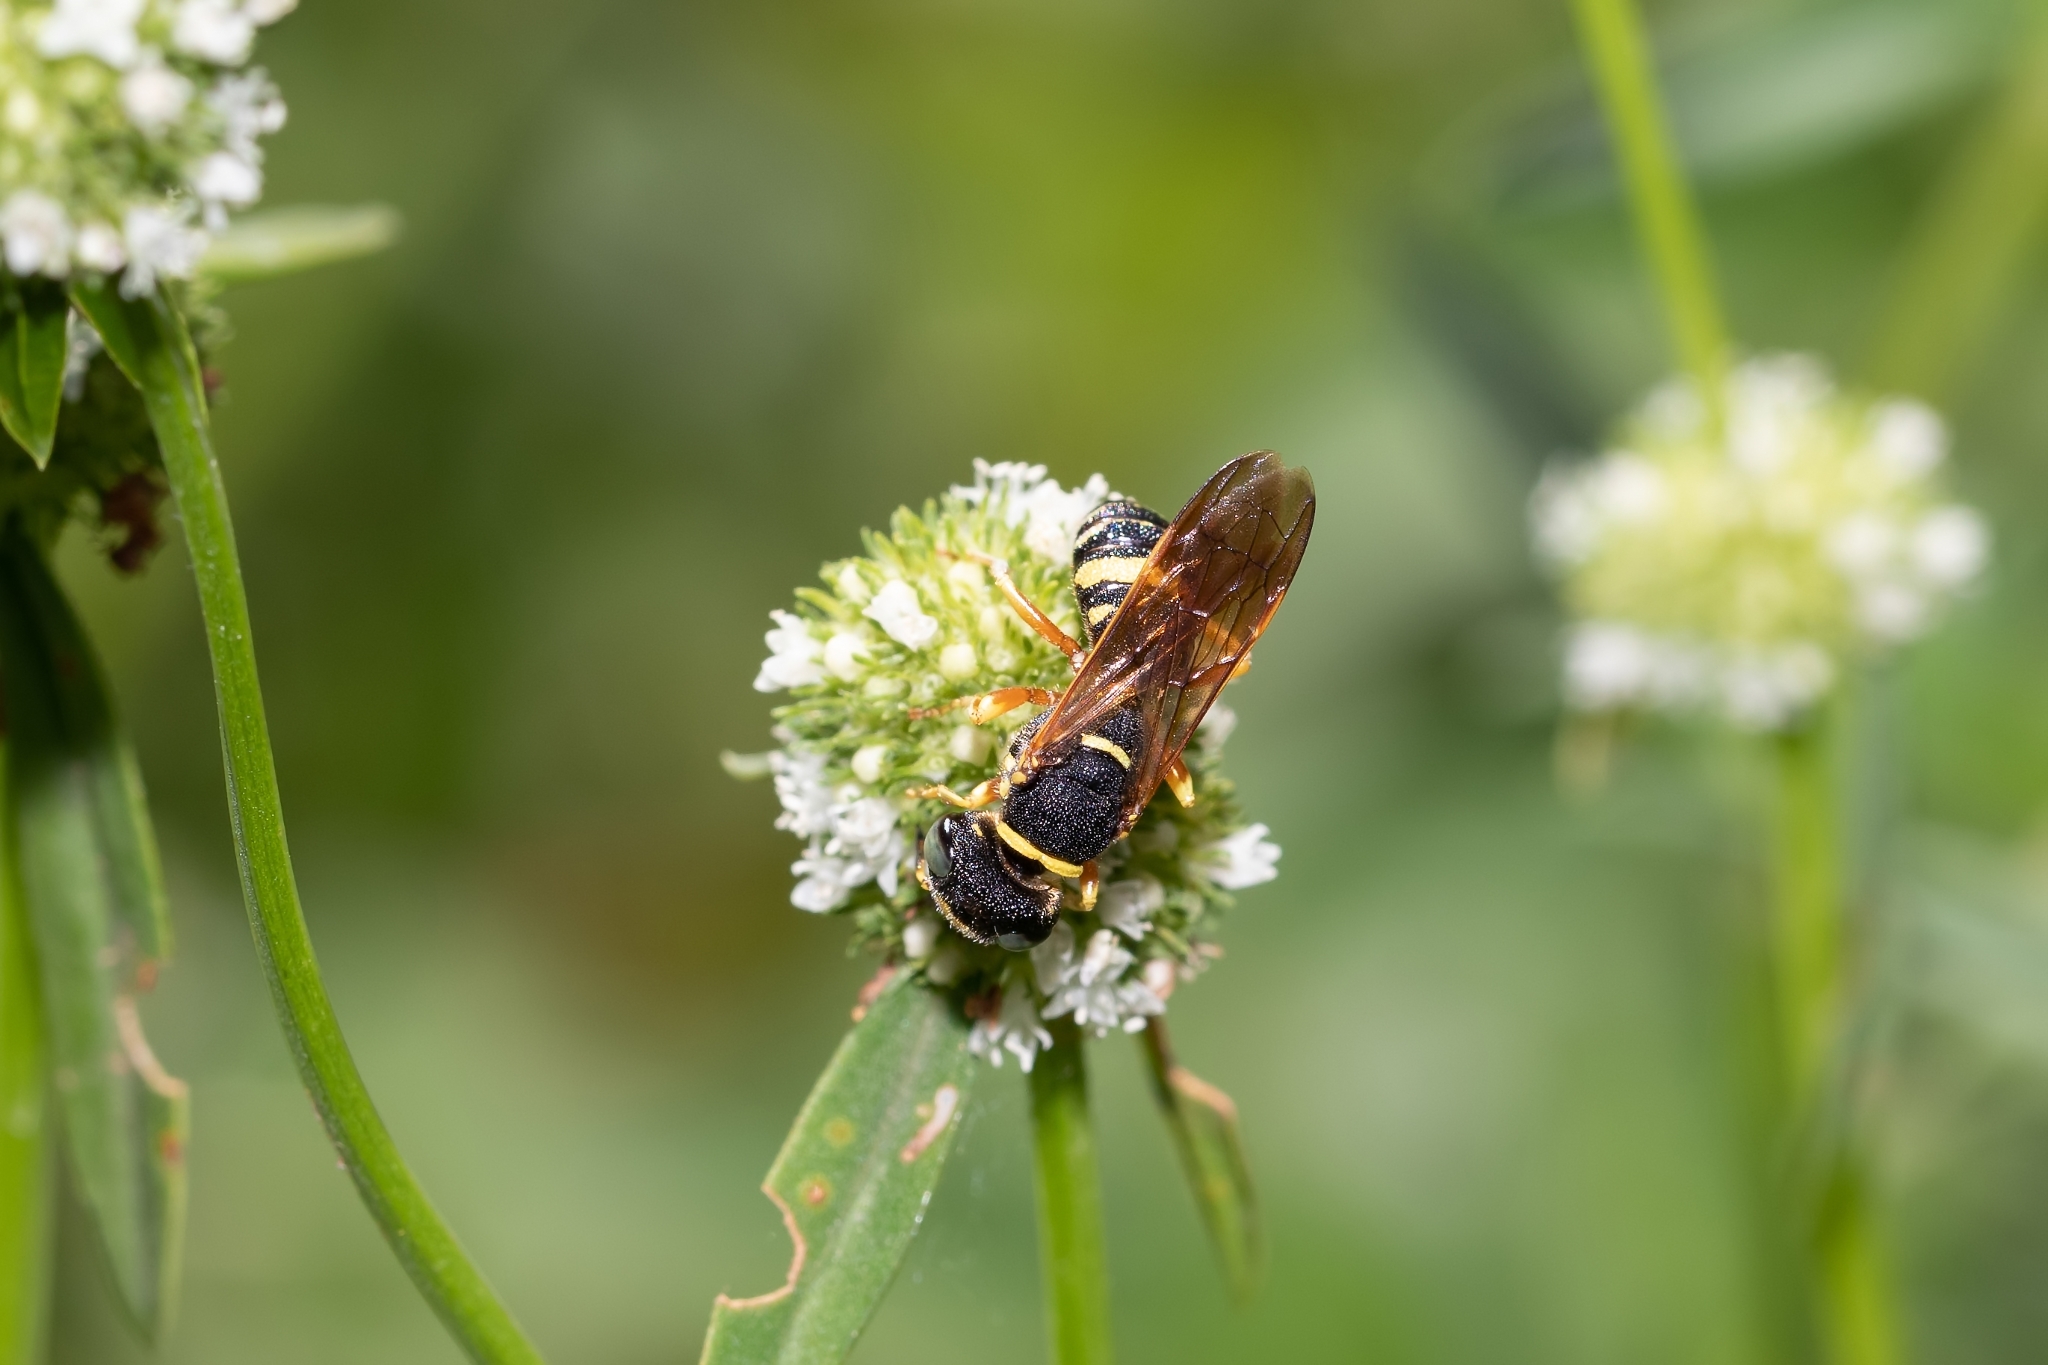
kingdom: Animalia
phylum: Arthropoda
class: Insecta
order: Hymenoptera
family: Crabronidae
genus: Philanthus
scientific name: Philanthus ventilabris
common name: Bee-killer wasp
